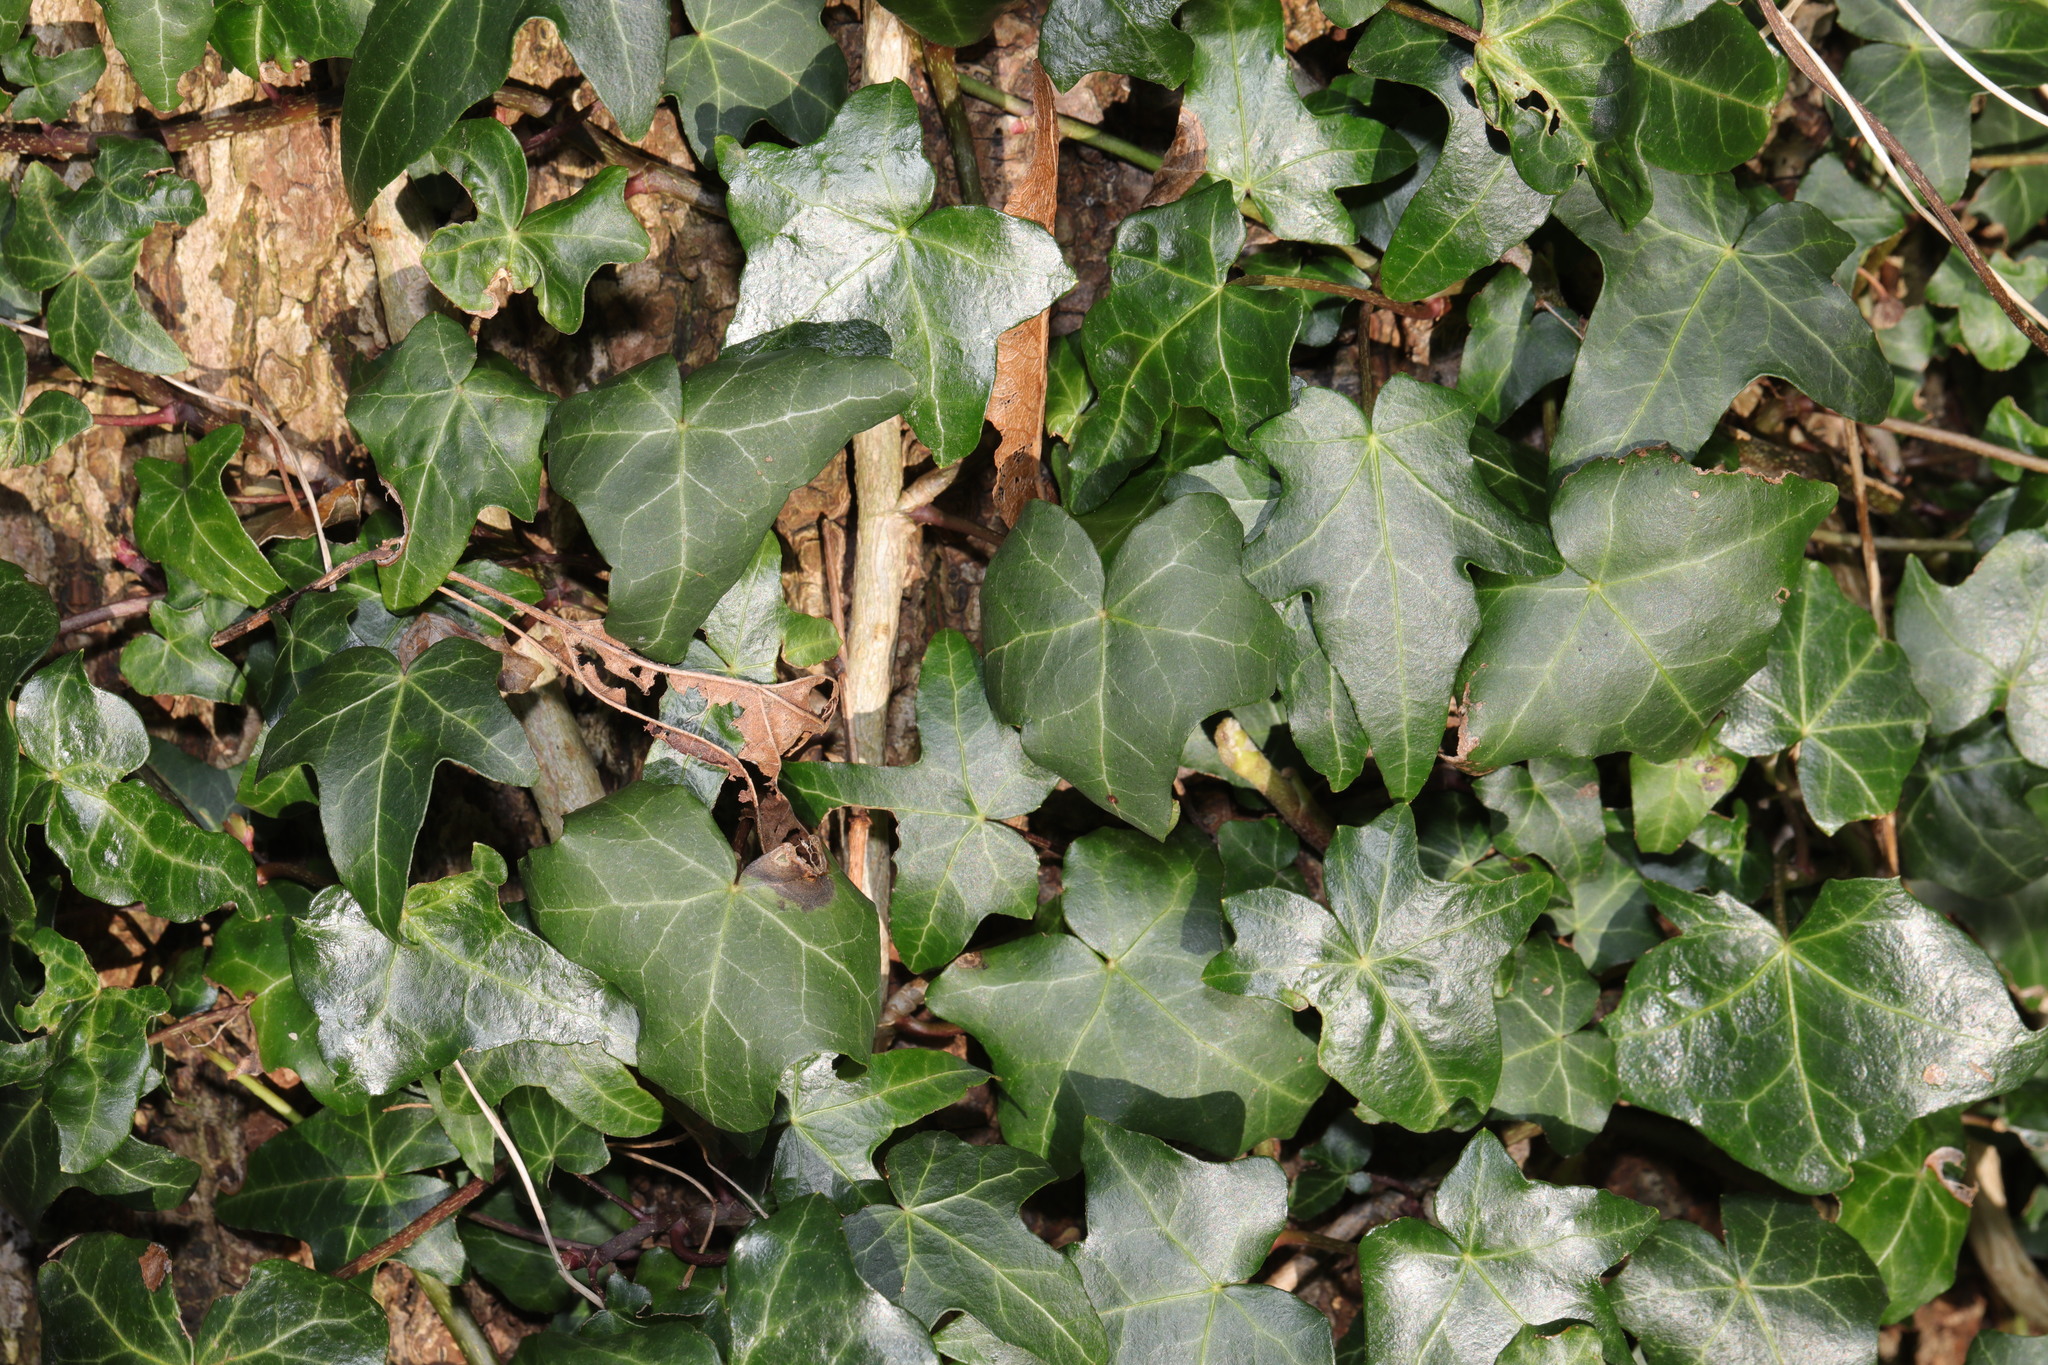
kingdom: Plantae
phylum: Tracheophyta
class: Magnoliopsida
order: Apiales
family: Araliaceae
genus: Hedera
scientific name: Hedera helix
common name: Ivy
